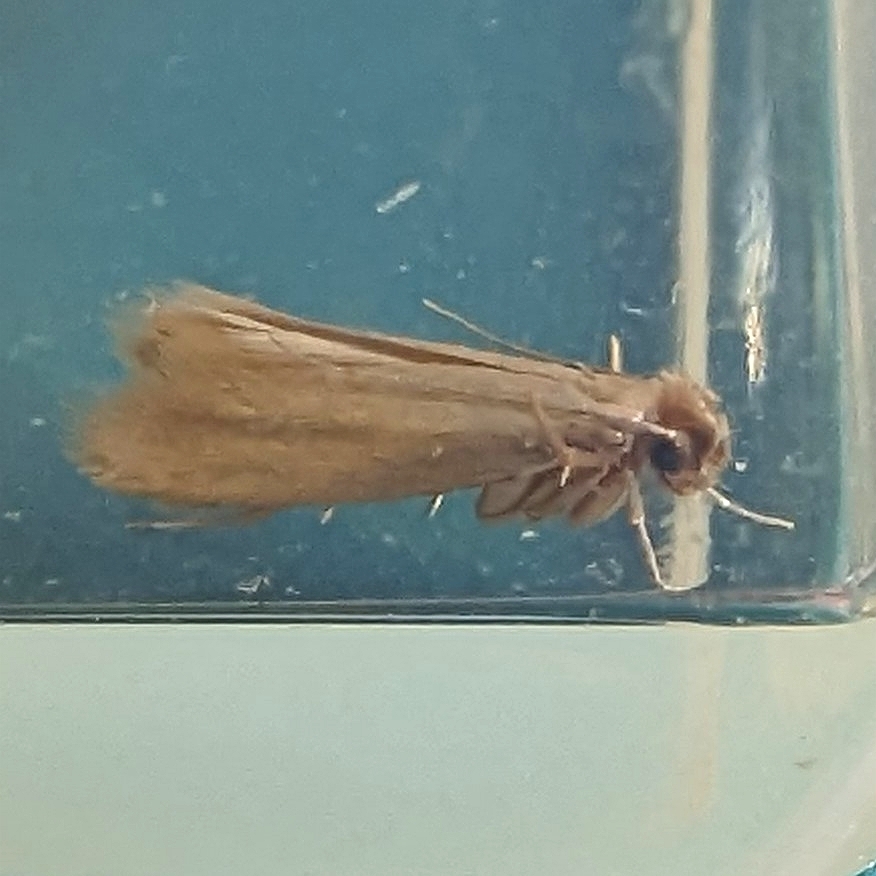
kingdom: Animalia
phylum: Arthropoda
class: Insecta
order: Lepidoptera
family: Tineidae
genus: Tineola
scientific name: Tineola bisselliella
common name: Webbing clothes moth
